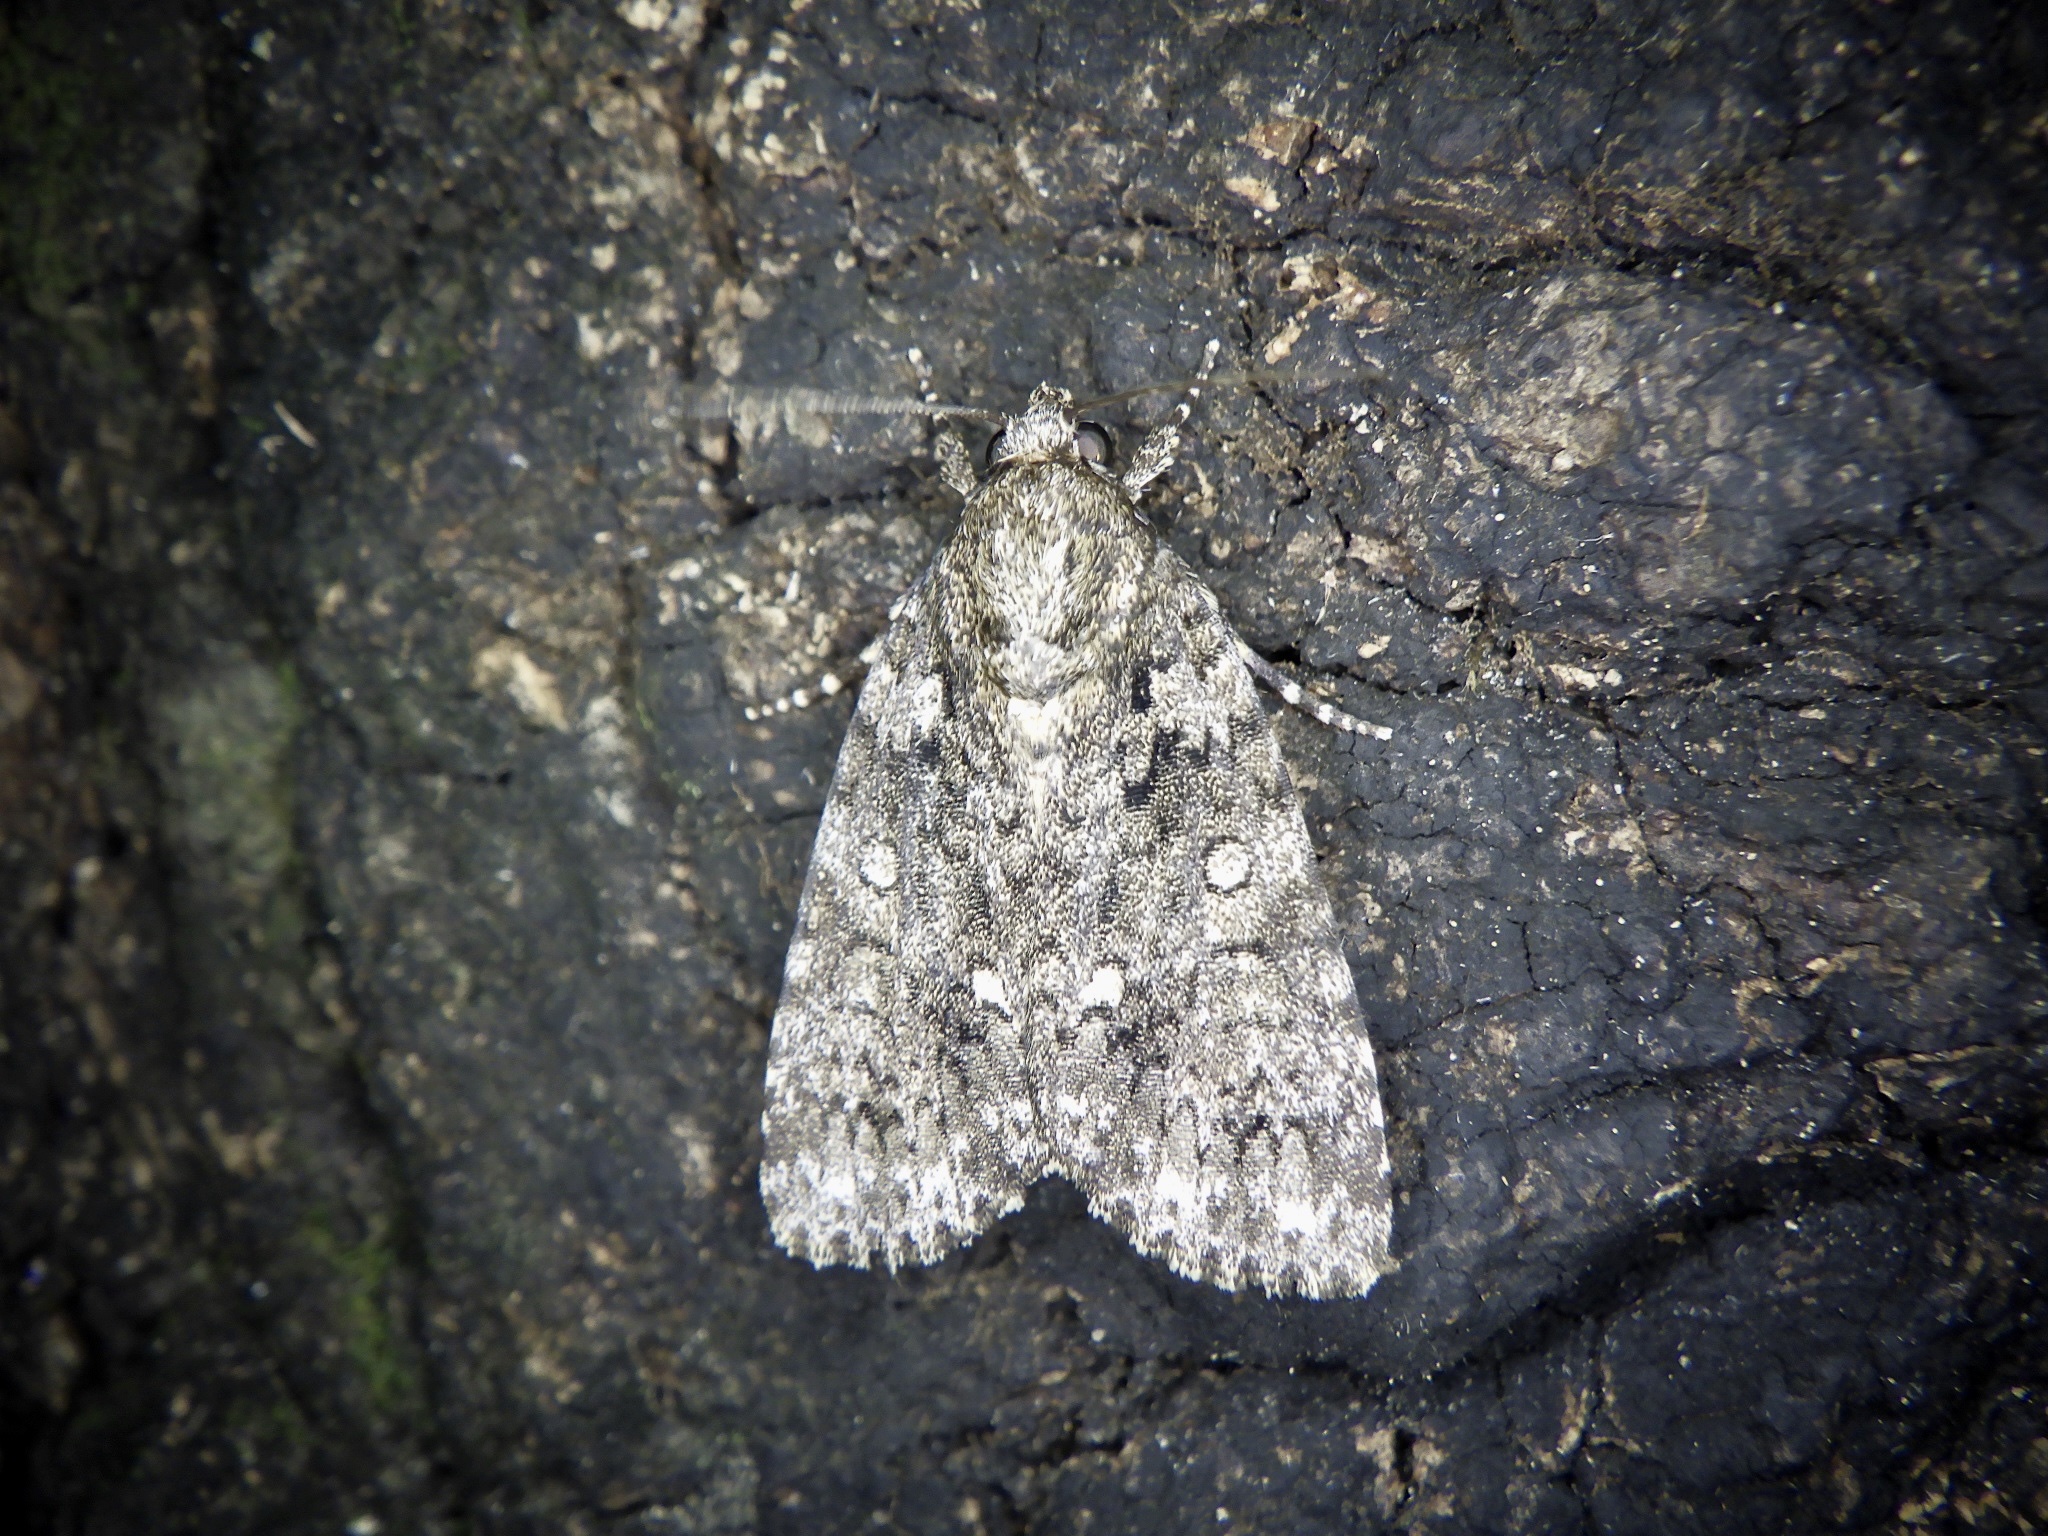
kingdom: Animalia
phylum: Arthropoda
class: Insecta
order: Lepidoptera
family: Noctuidae
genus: Acronicta
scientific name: Acronicta rumicis
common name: Knot grass
